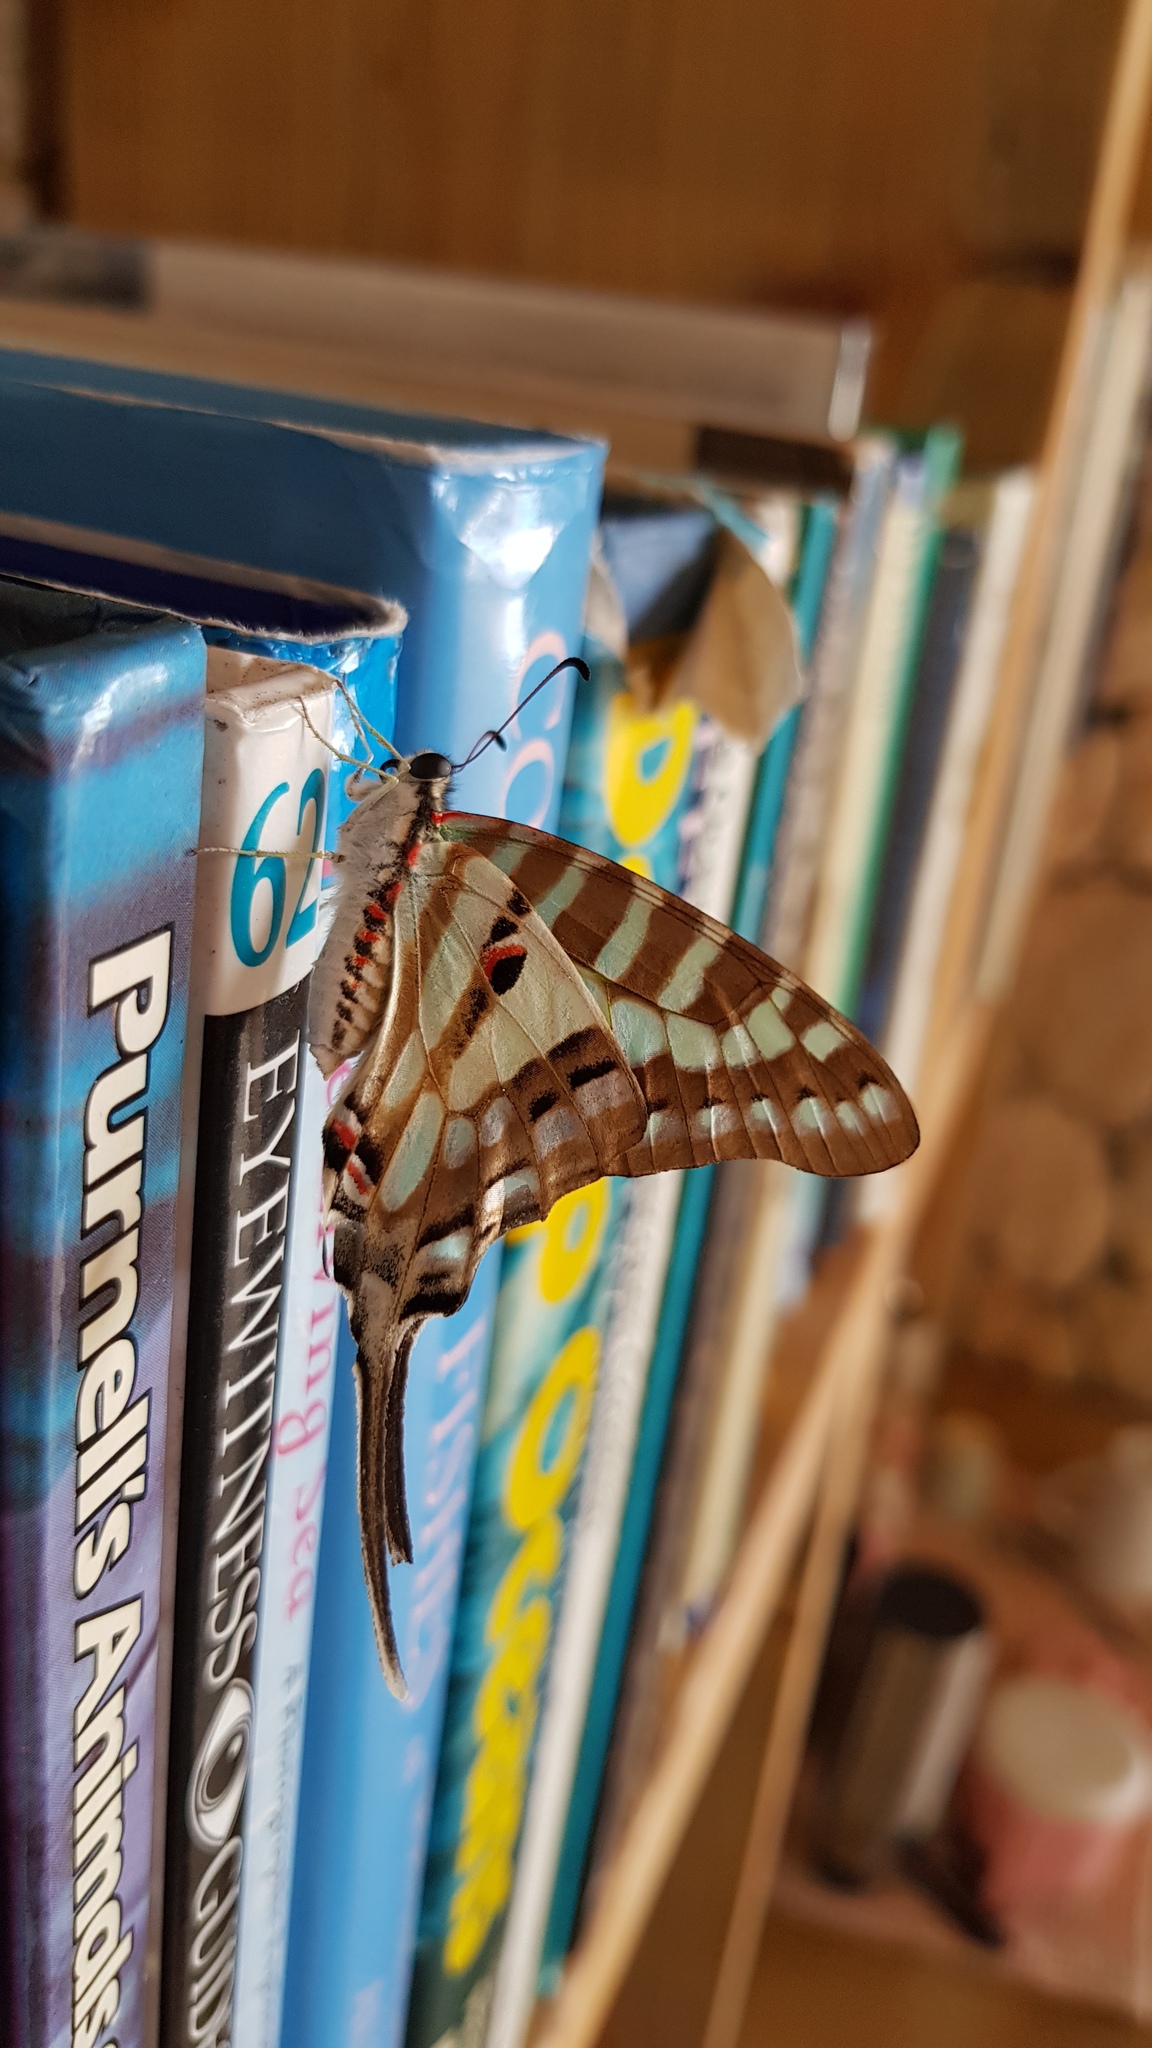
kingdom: Animalia
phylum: Arthropoda
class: Insecta
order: Lepidoptera
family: Papilionidae
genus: Graphium
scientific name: Graphium evombar
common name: Madagascan striped swordtail
